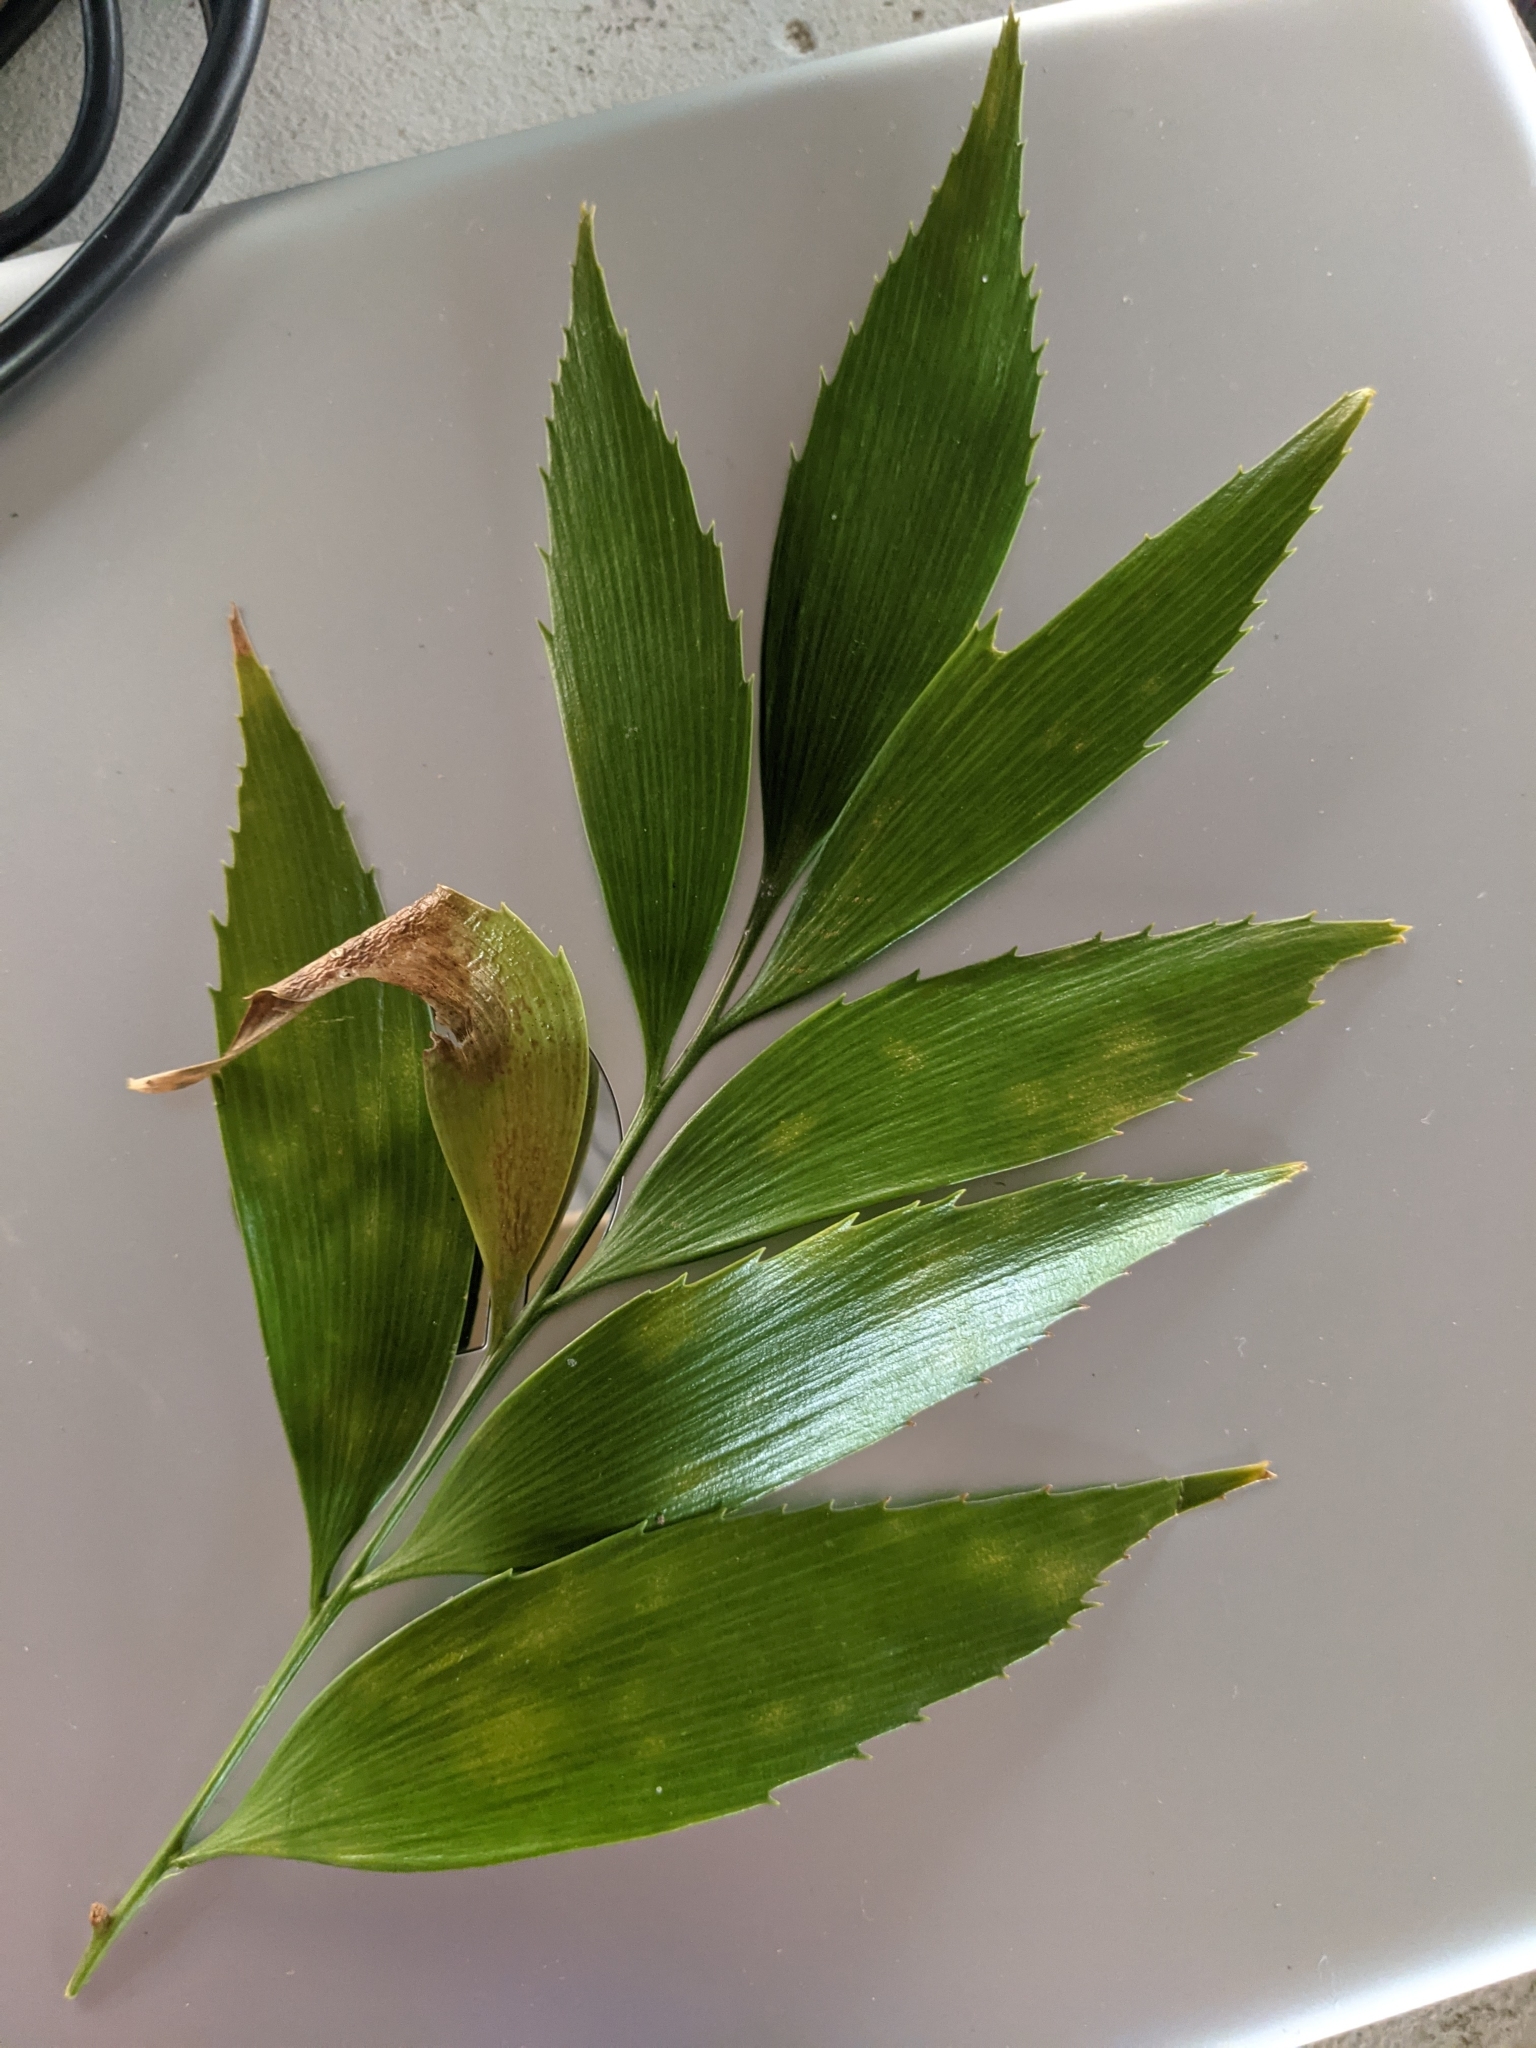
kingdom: Plantae
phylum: Tracheophyta
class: Cycadopsida
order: Cycadales
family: Zamiaceae
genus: Bowenia
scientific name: Bowenia serrulata
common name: Byfield fern
